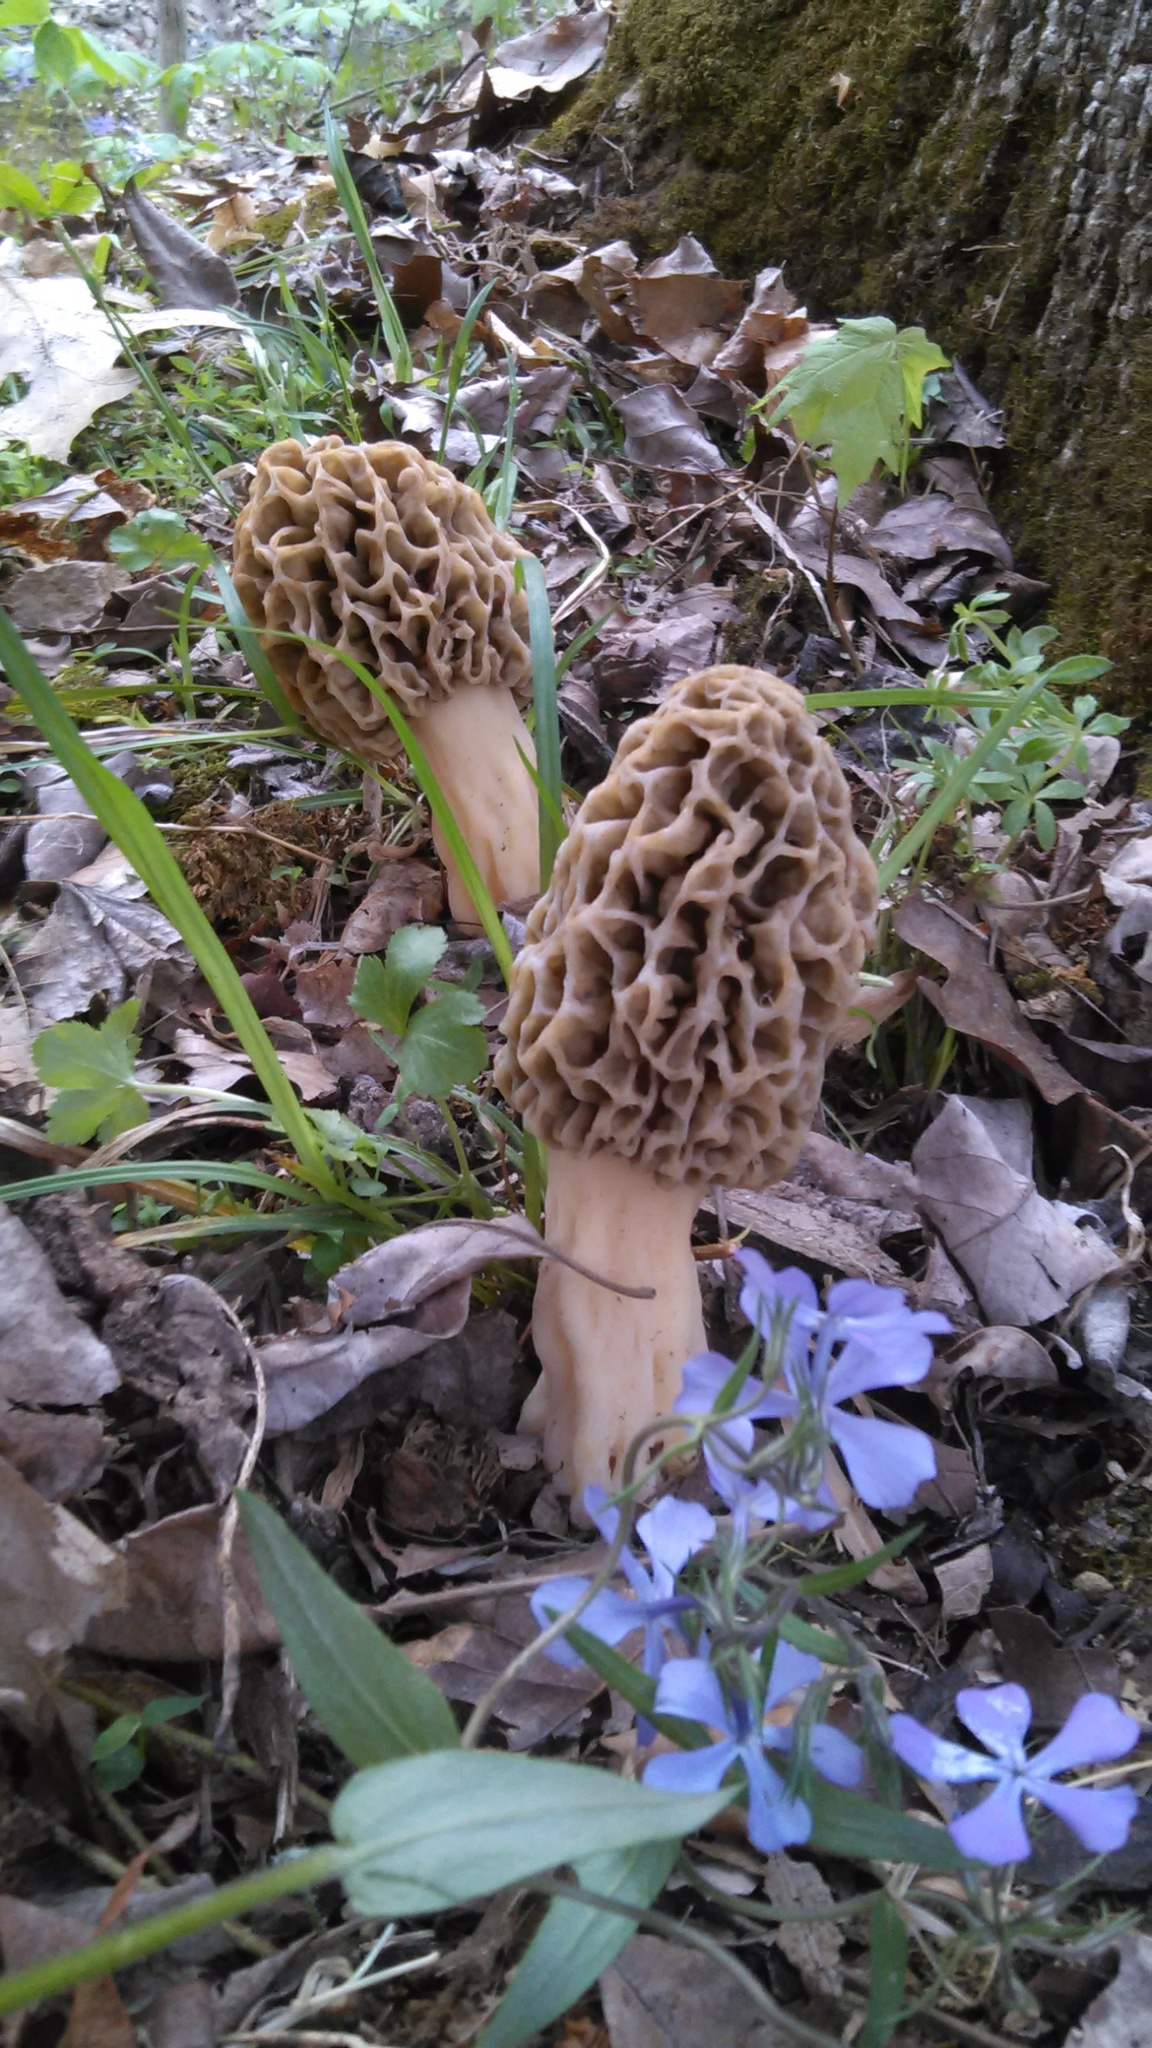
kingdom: Fungi
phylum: Ascomycota
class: Pezizomycetes
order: Pezizales
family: Morchellaceae
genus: Morchella
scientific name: Morchella americana
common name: White morel
